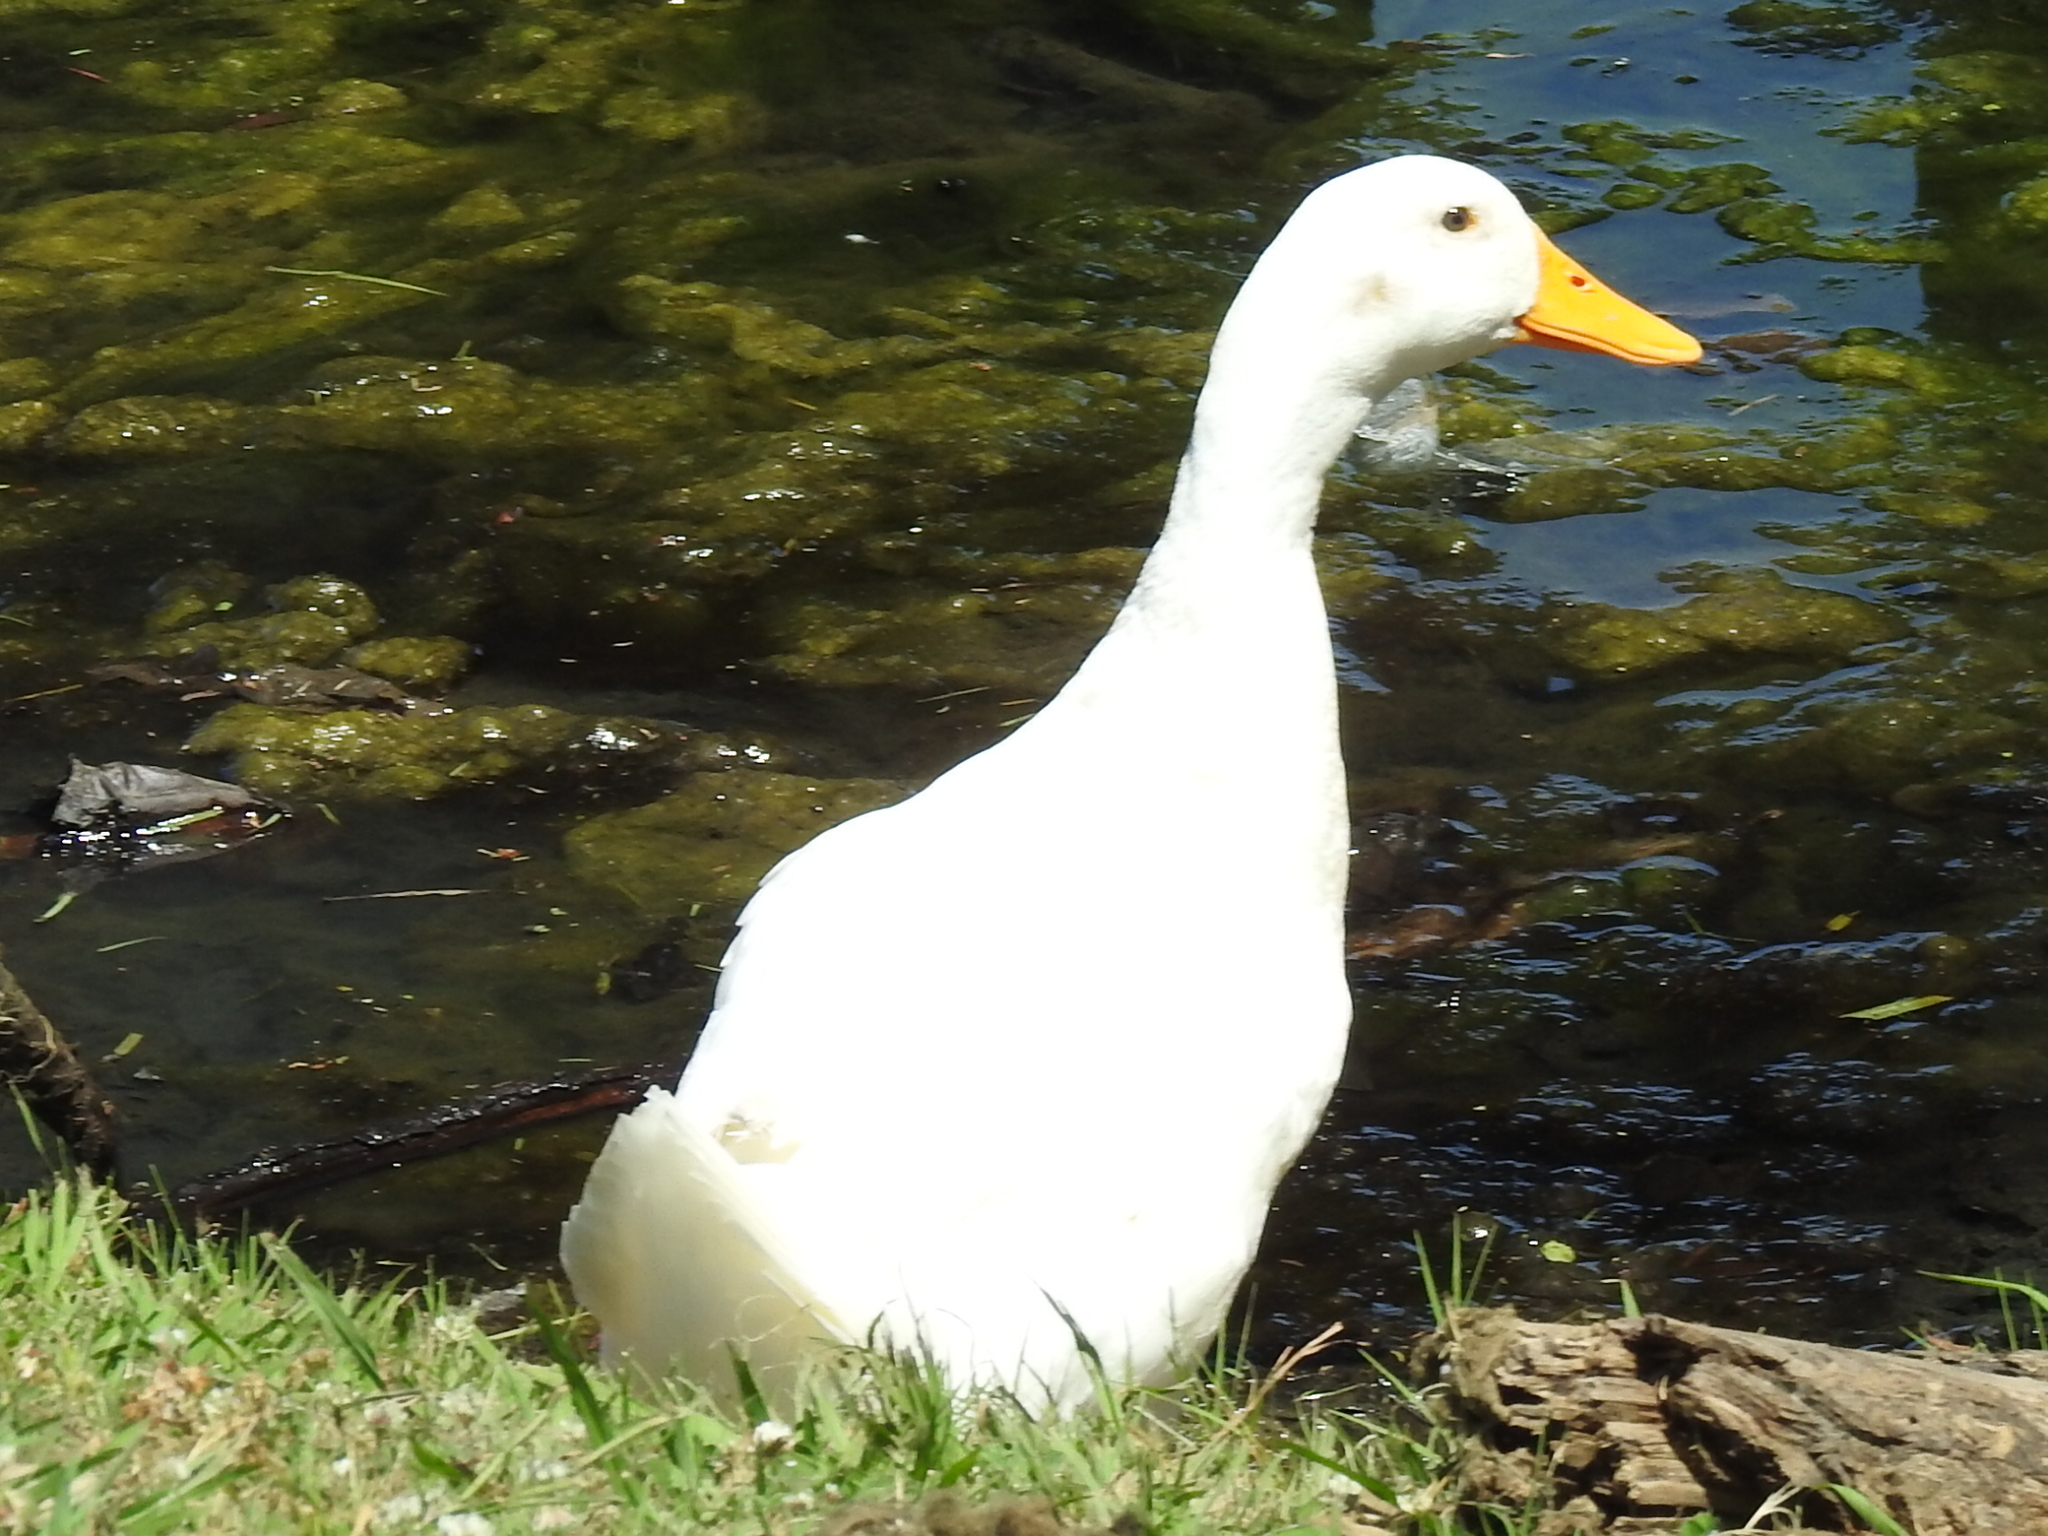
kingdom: Animalia
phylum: Chordata
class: Aves
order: Anseriformes
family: Anatidae
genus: Anas
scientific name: Anas platyrhynchos
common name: Mallard
